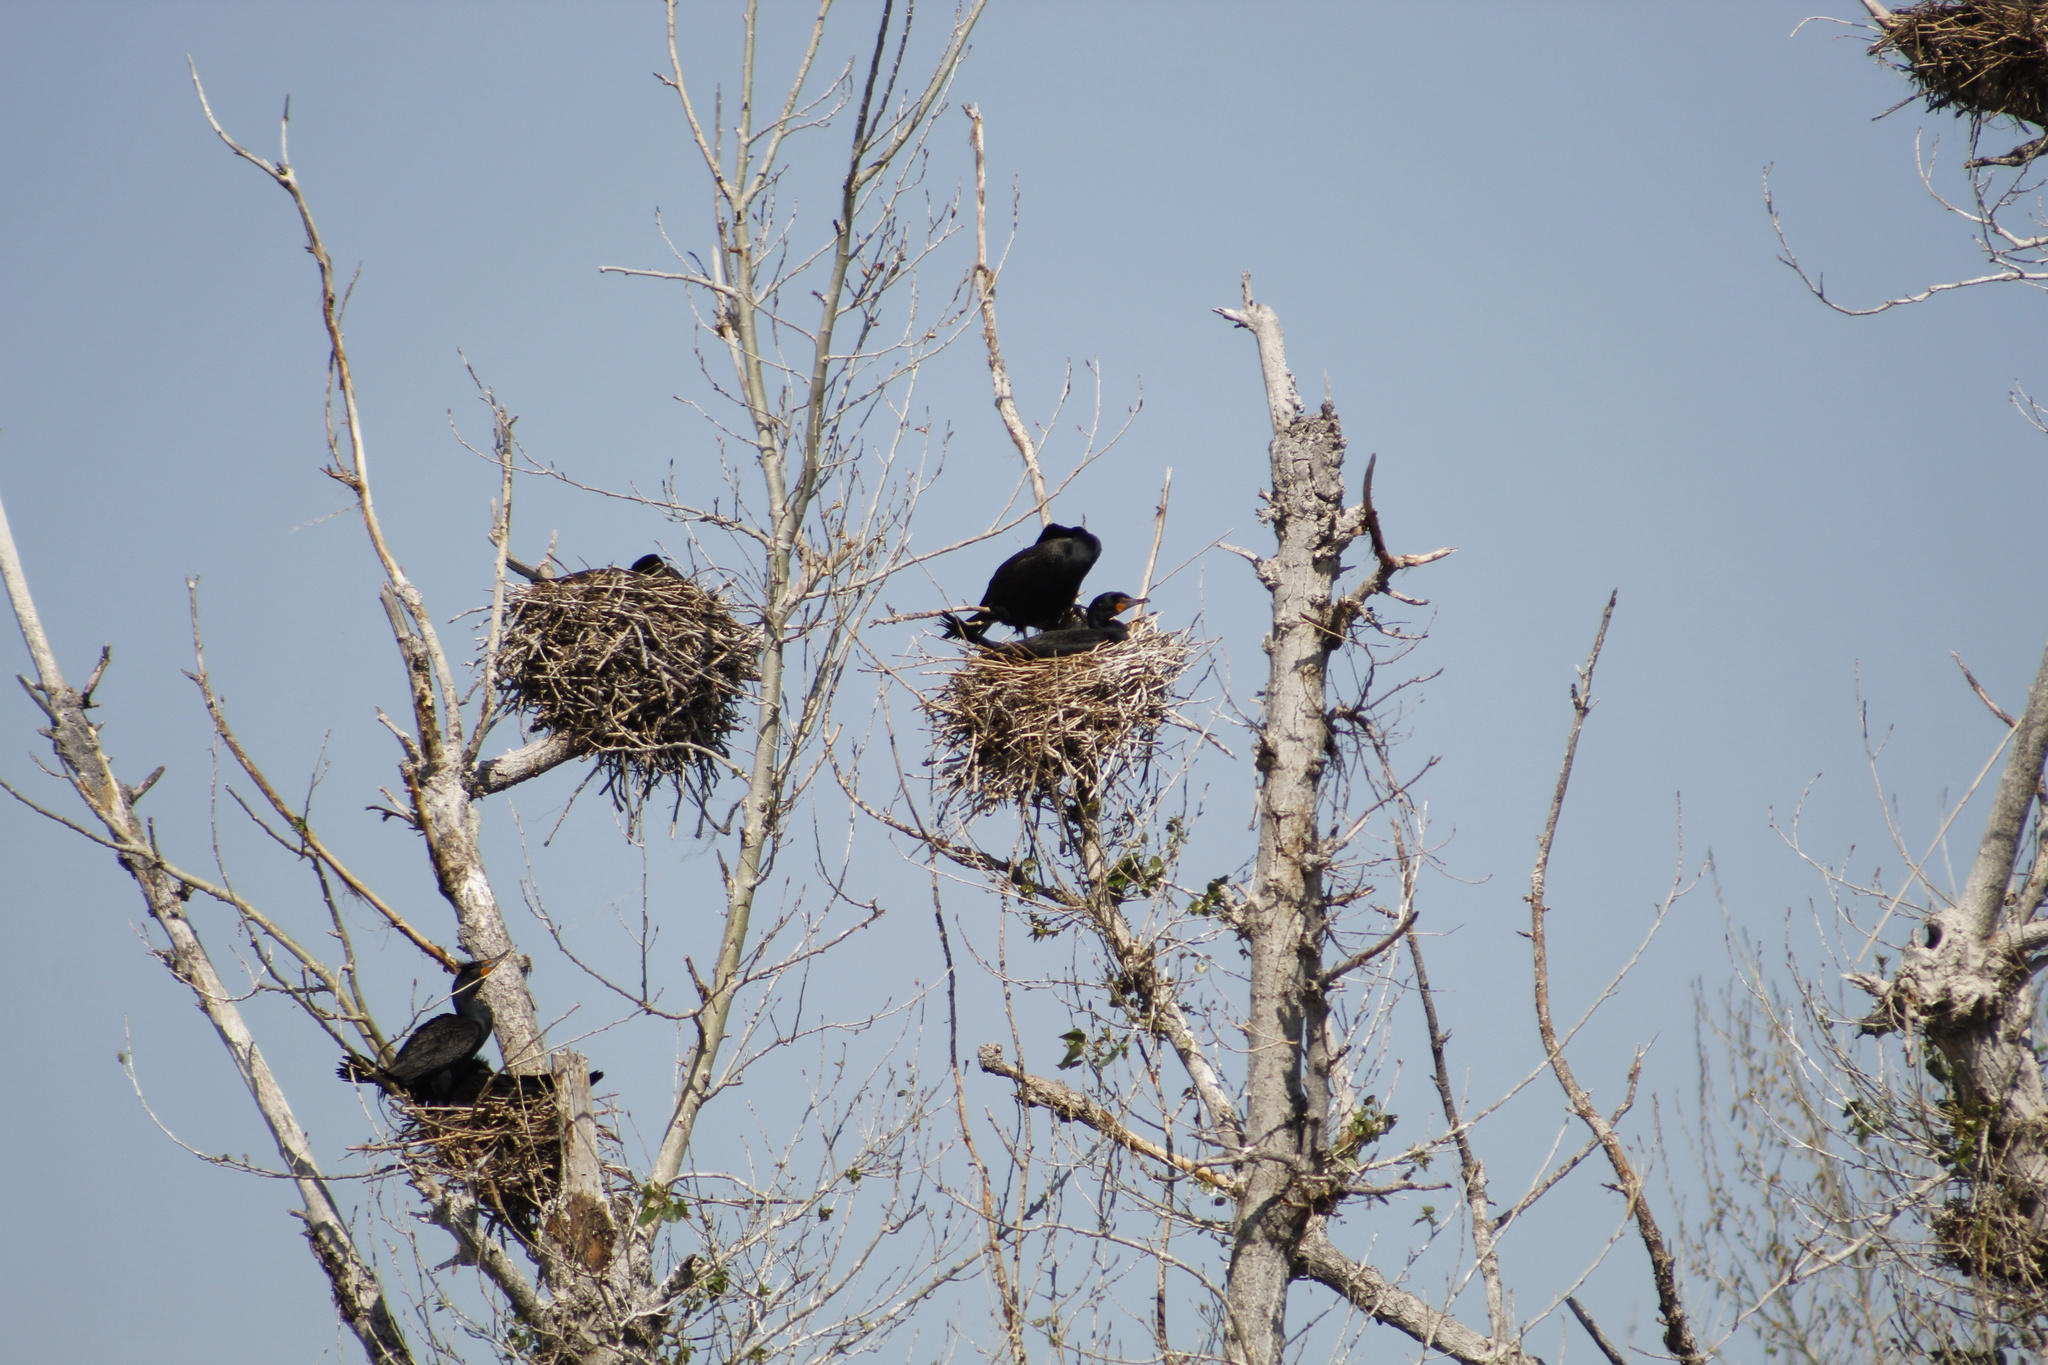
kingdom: Animalia
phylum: Chordata
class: Aves
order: Suliformes
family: Phalacrocoracidae
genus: Phalacrocorax
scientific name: Phalacrocorax auritus
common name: Double-crested cormorant
